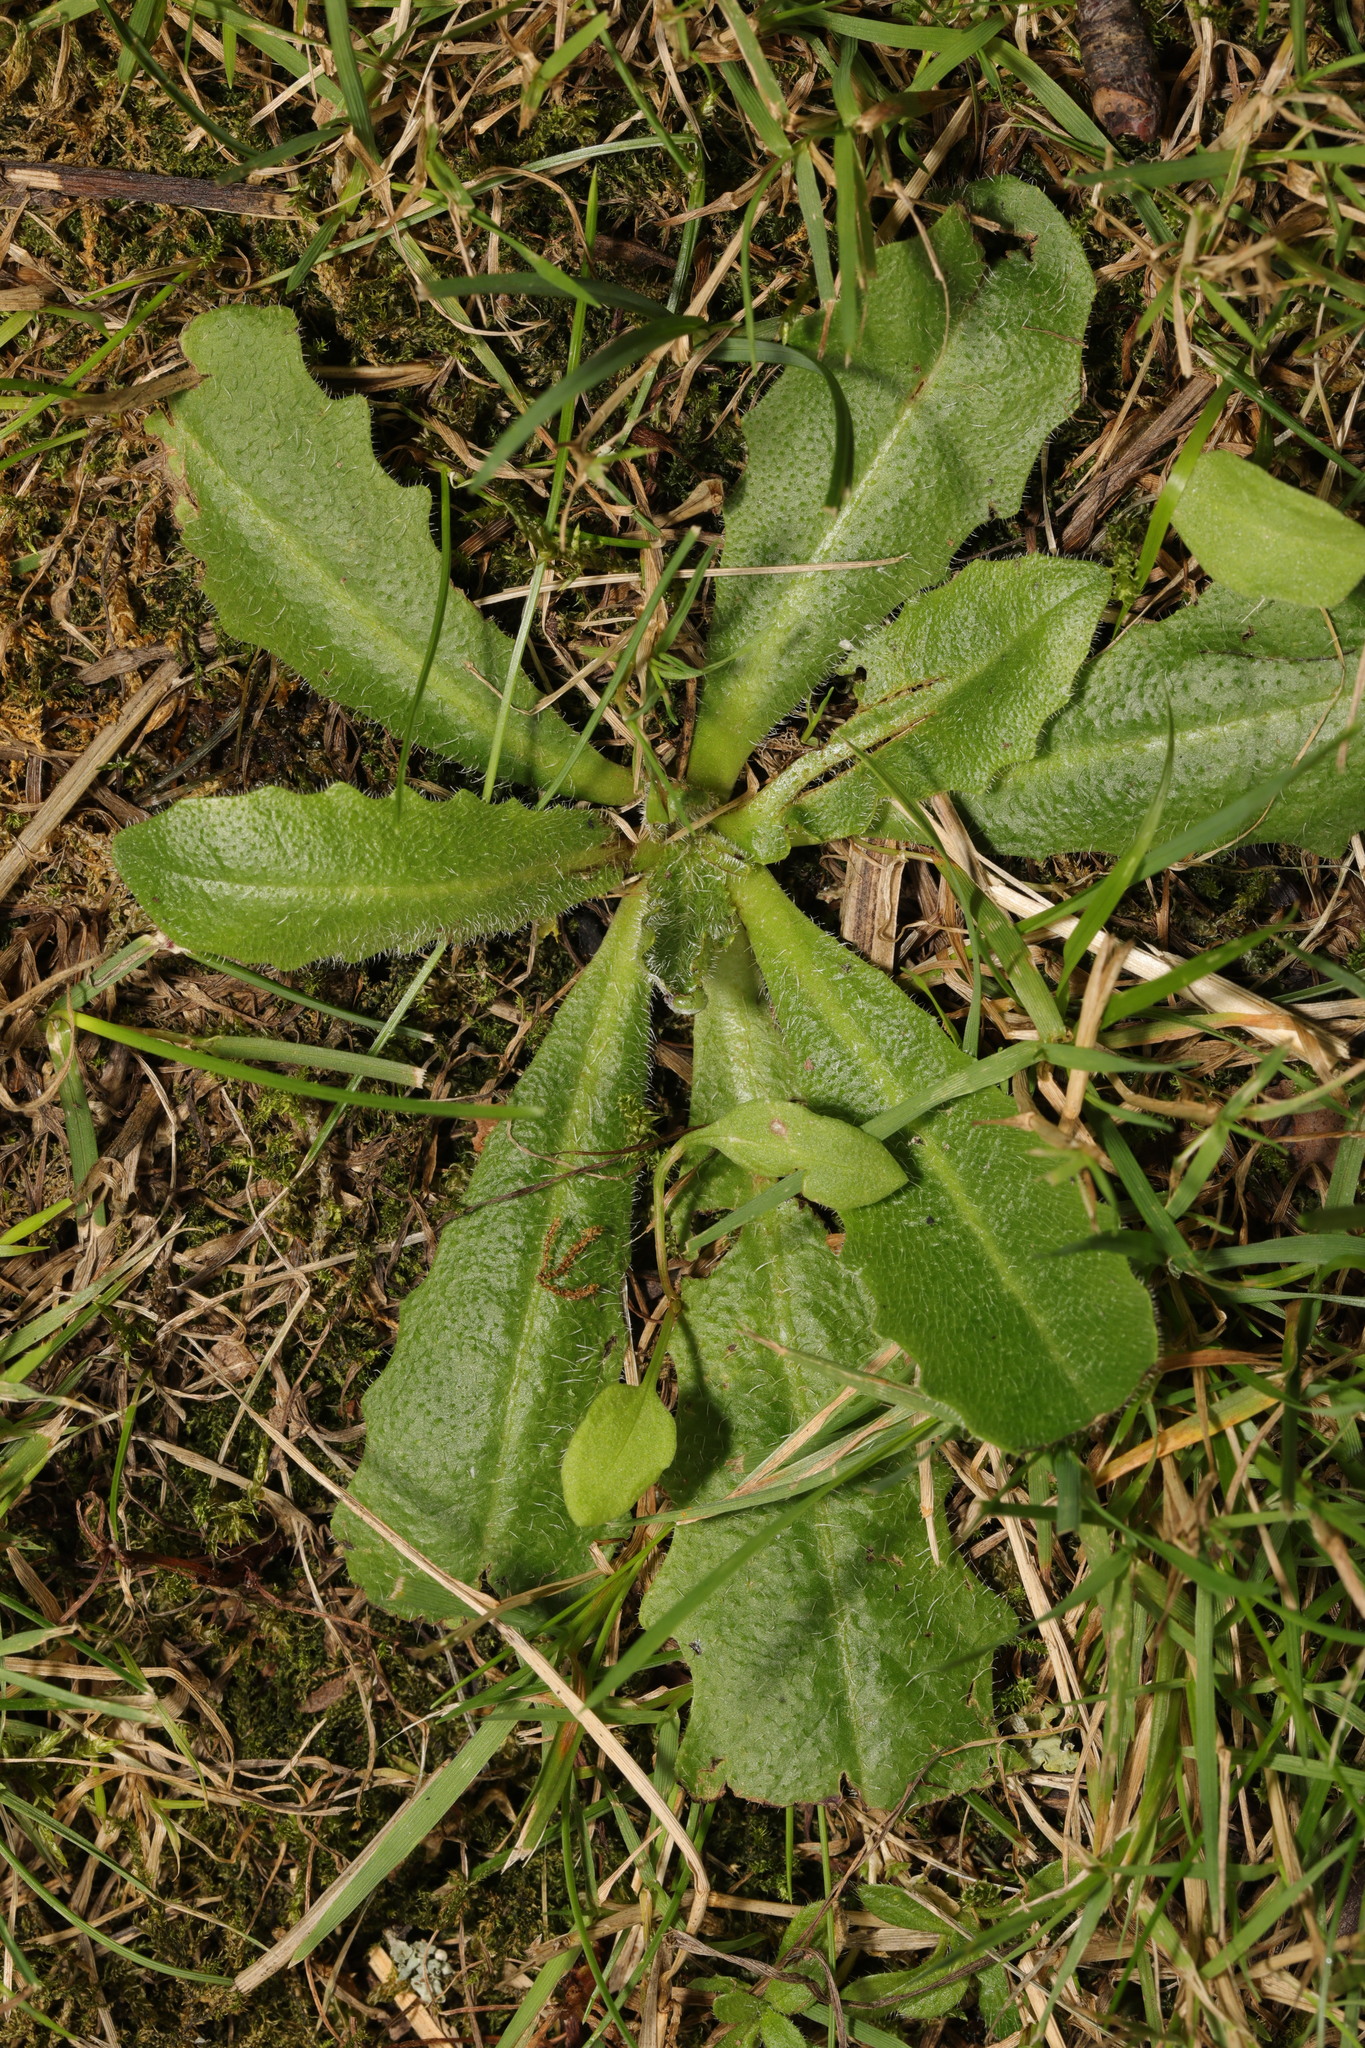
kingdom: Plantae
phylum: Tracheophyta
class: Magnoliopsida
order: Asterales
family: Asteraceae
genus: Hypochaeris
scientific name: Hypochaeris radicata
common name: Flatweed
